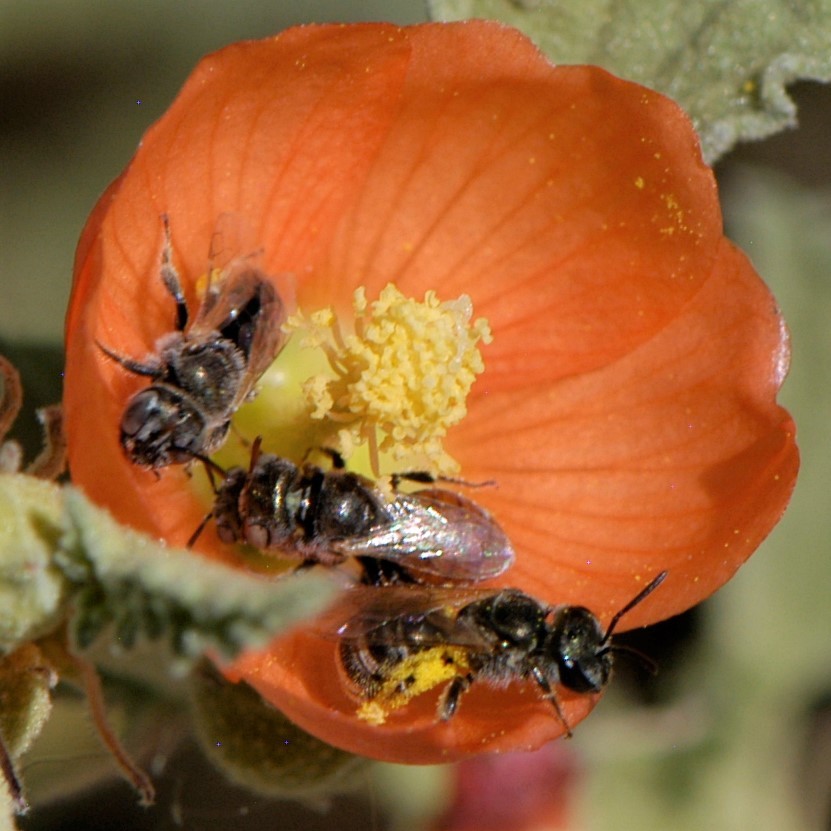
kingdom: Animalia
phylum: Arthropoda
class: Insecta
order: Hymenoptera
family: Halictidae
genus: Halictus
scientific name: Halictus tripartitus
